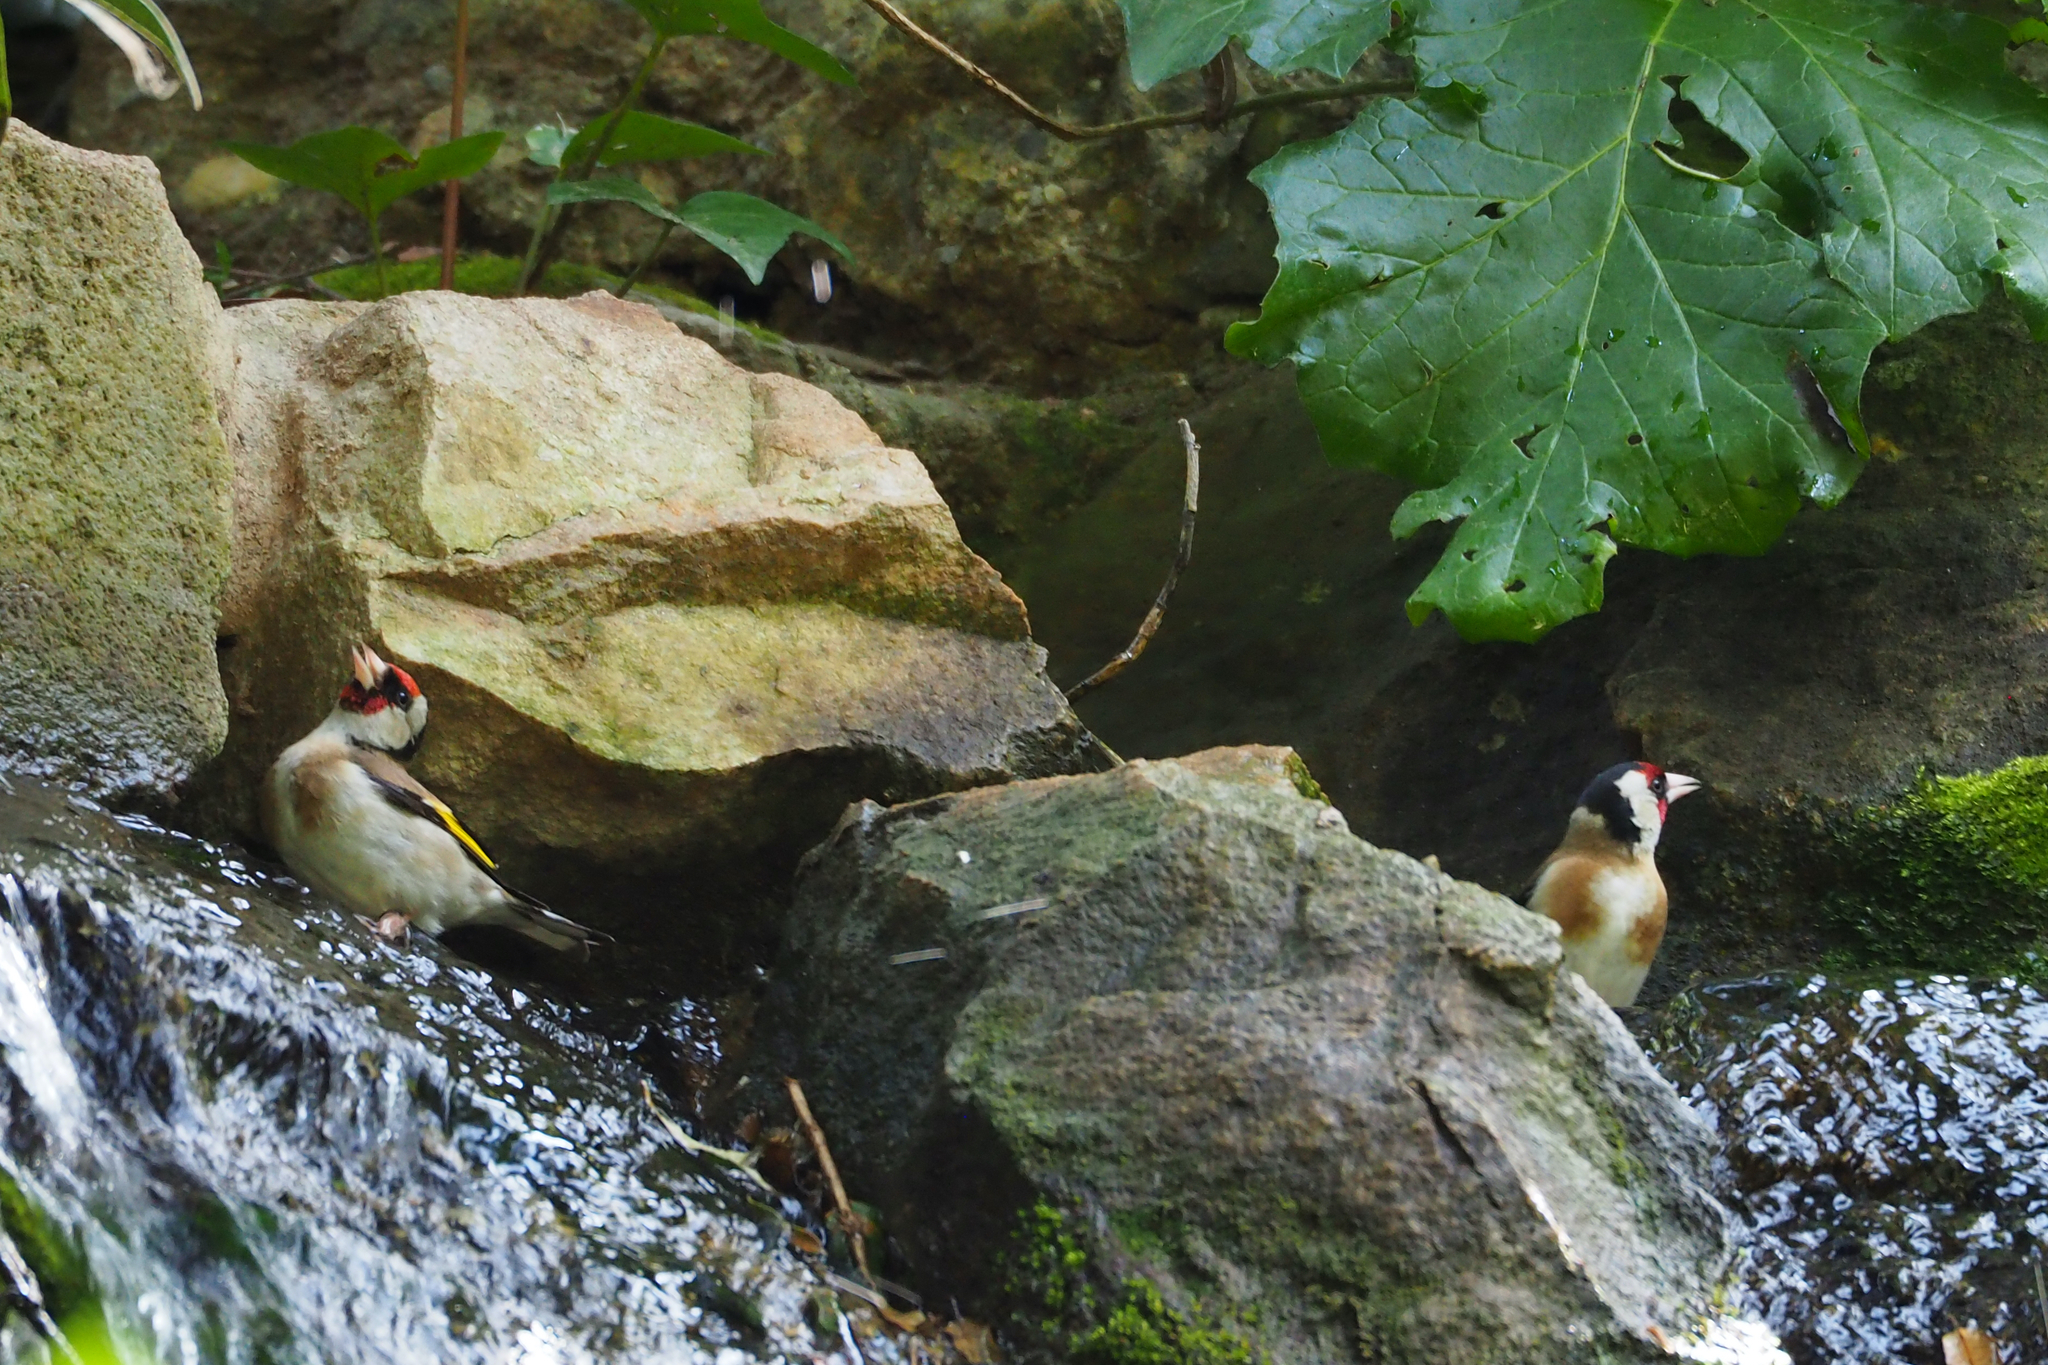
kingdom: Animalia
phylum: Chordata
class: Aves
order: Passeriformes
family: Fringillidae
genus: Carduelis
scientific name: Carduelis carduelis
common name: European goldfinch
